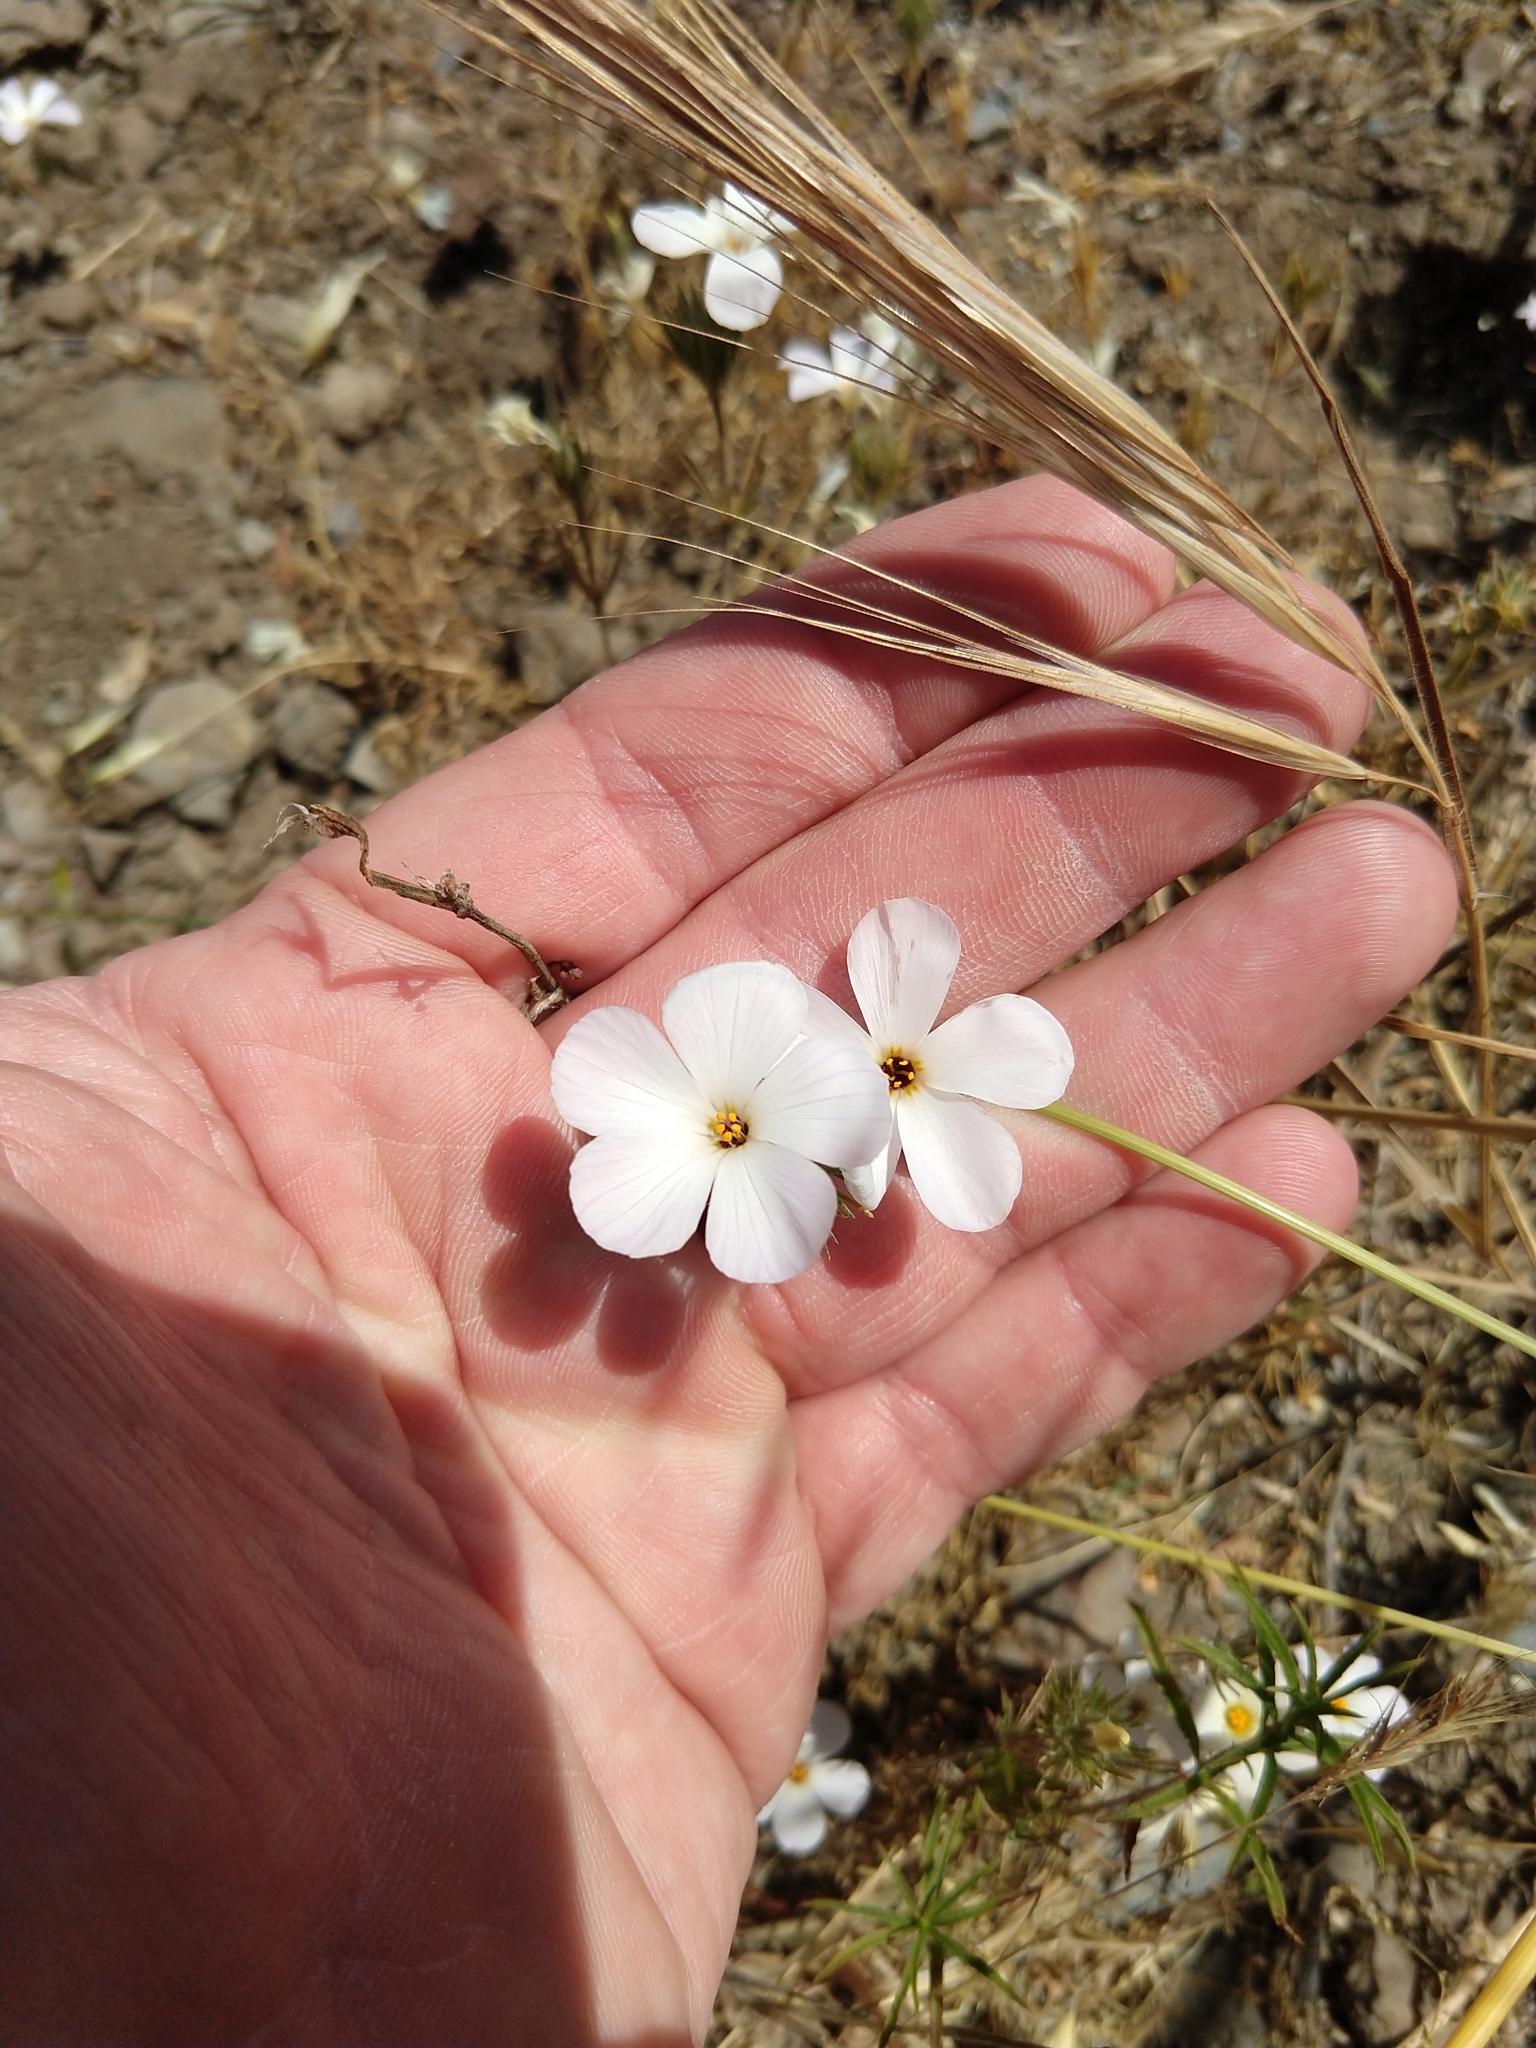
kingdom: Plantae
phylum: Tracheophyta
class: Magnoliopsida
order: Ericales
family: Polemoniaceae
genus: Leptosiphon
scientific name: Leptosiphon grandiflorus
